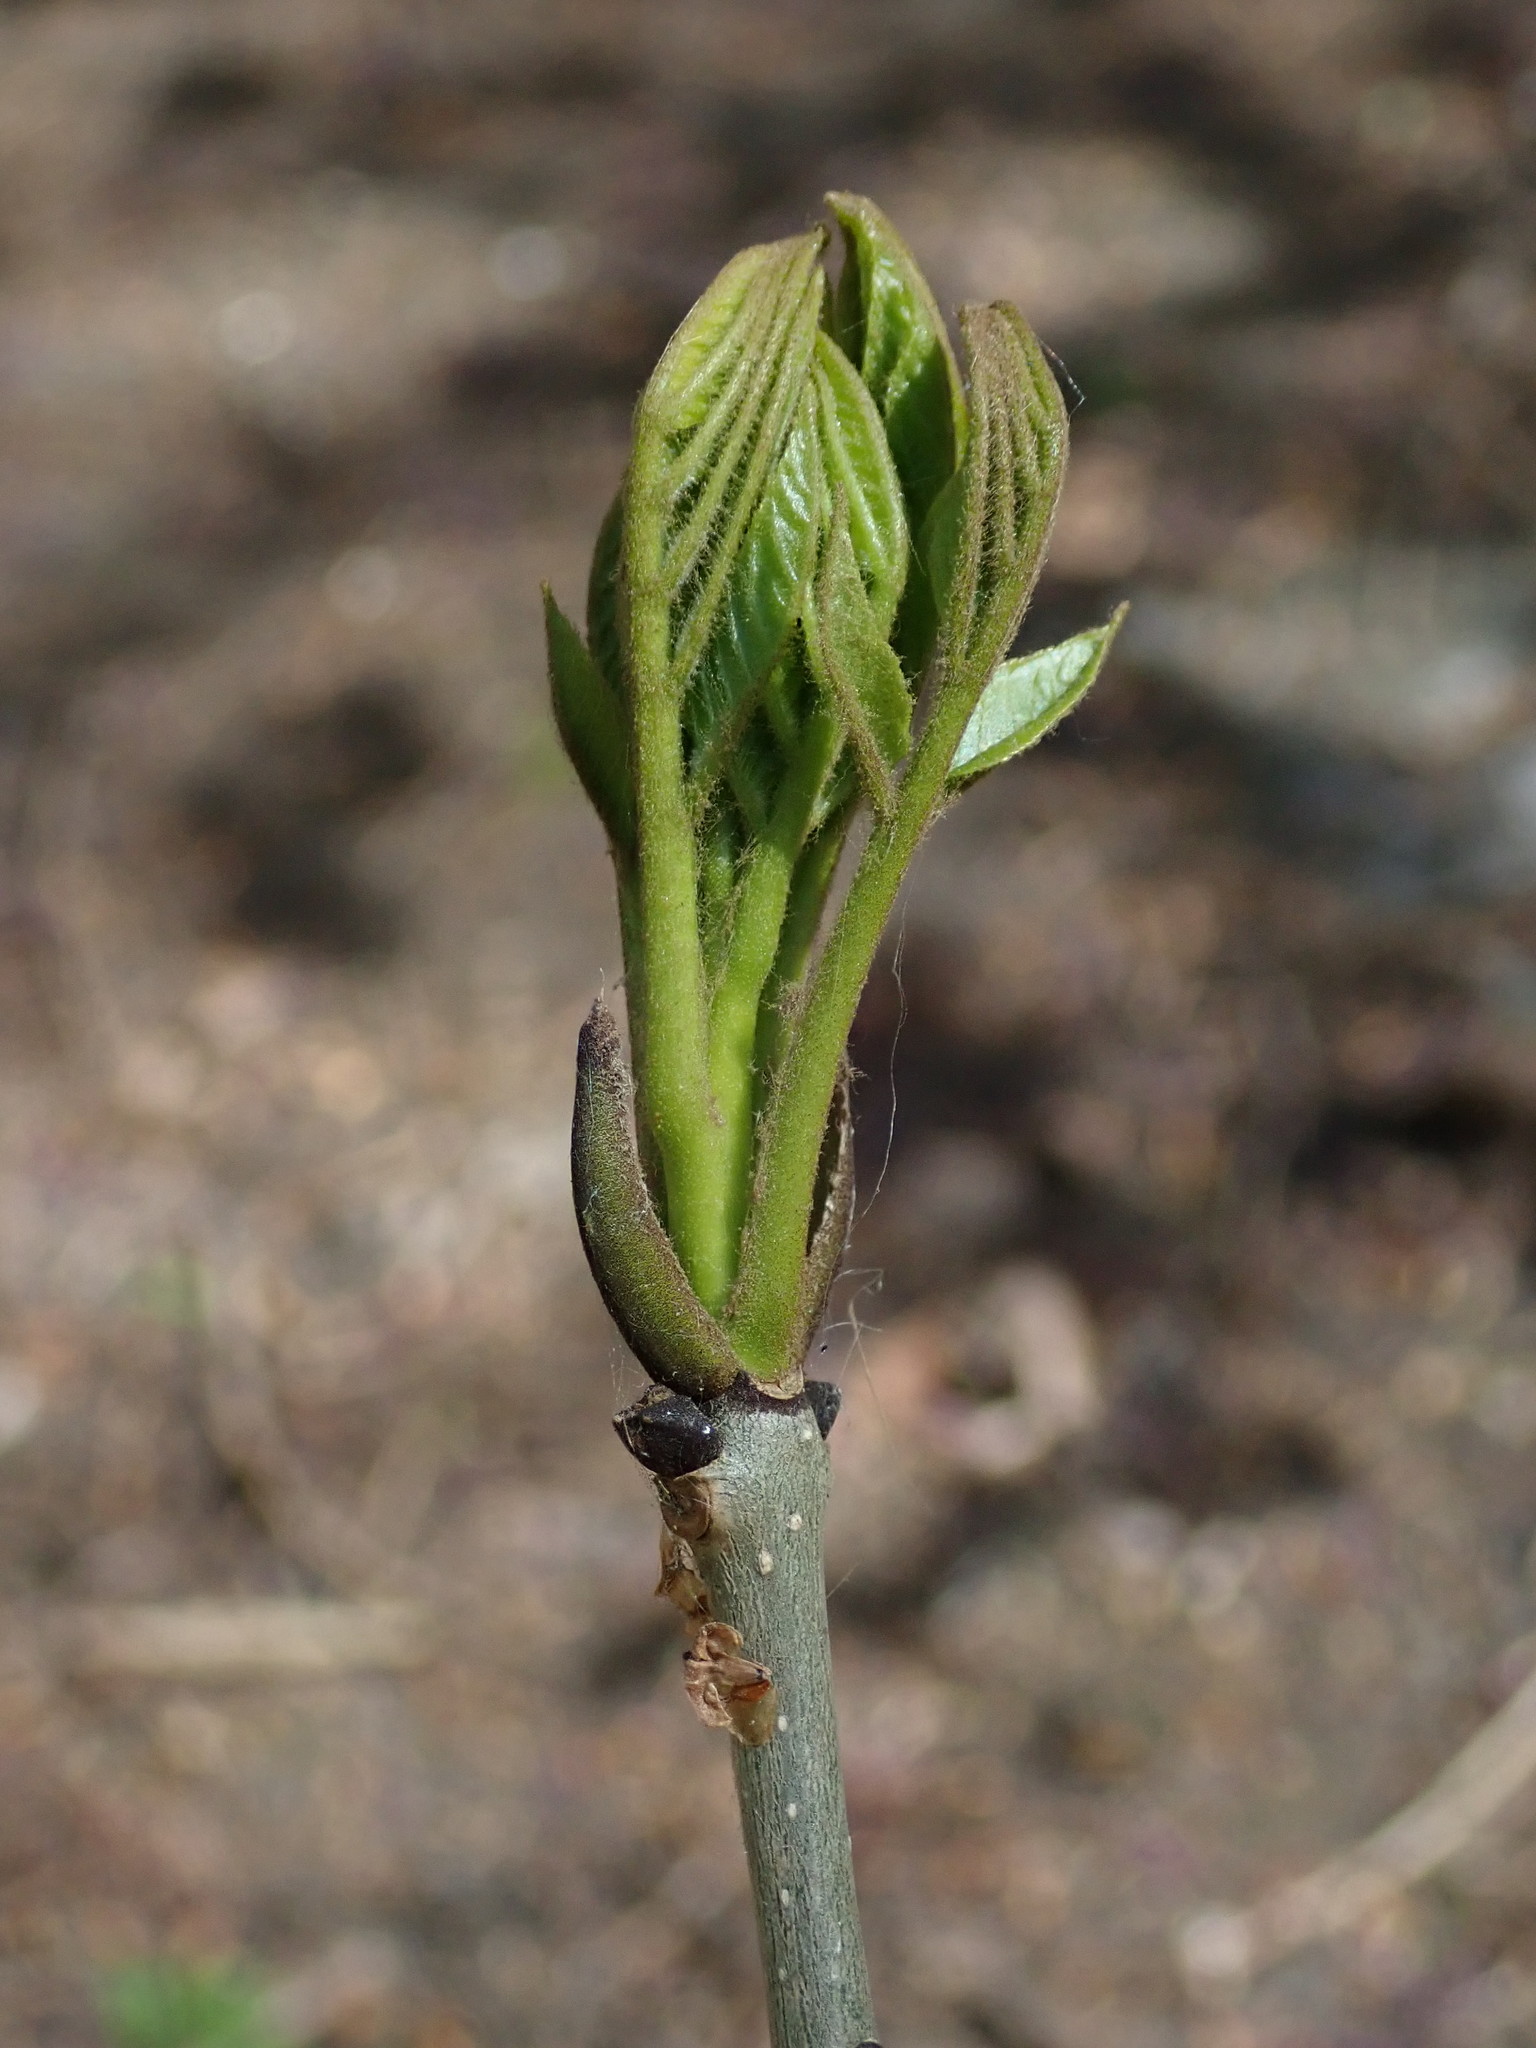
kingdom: Plantae
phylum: Tracheophyta
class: Magnoliopsida
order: Lamiales
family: Oleaceae
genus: Fraxinus
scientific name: Fraxinus excelsior
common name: European ash
